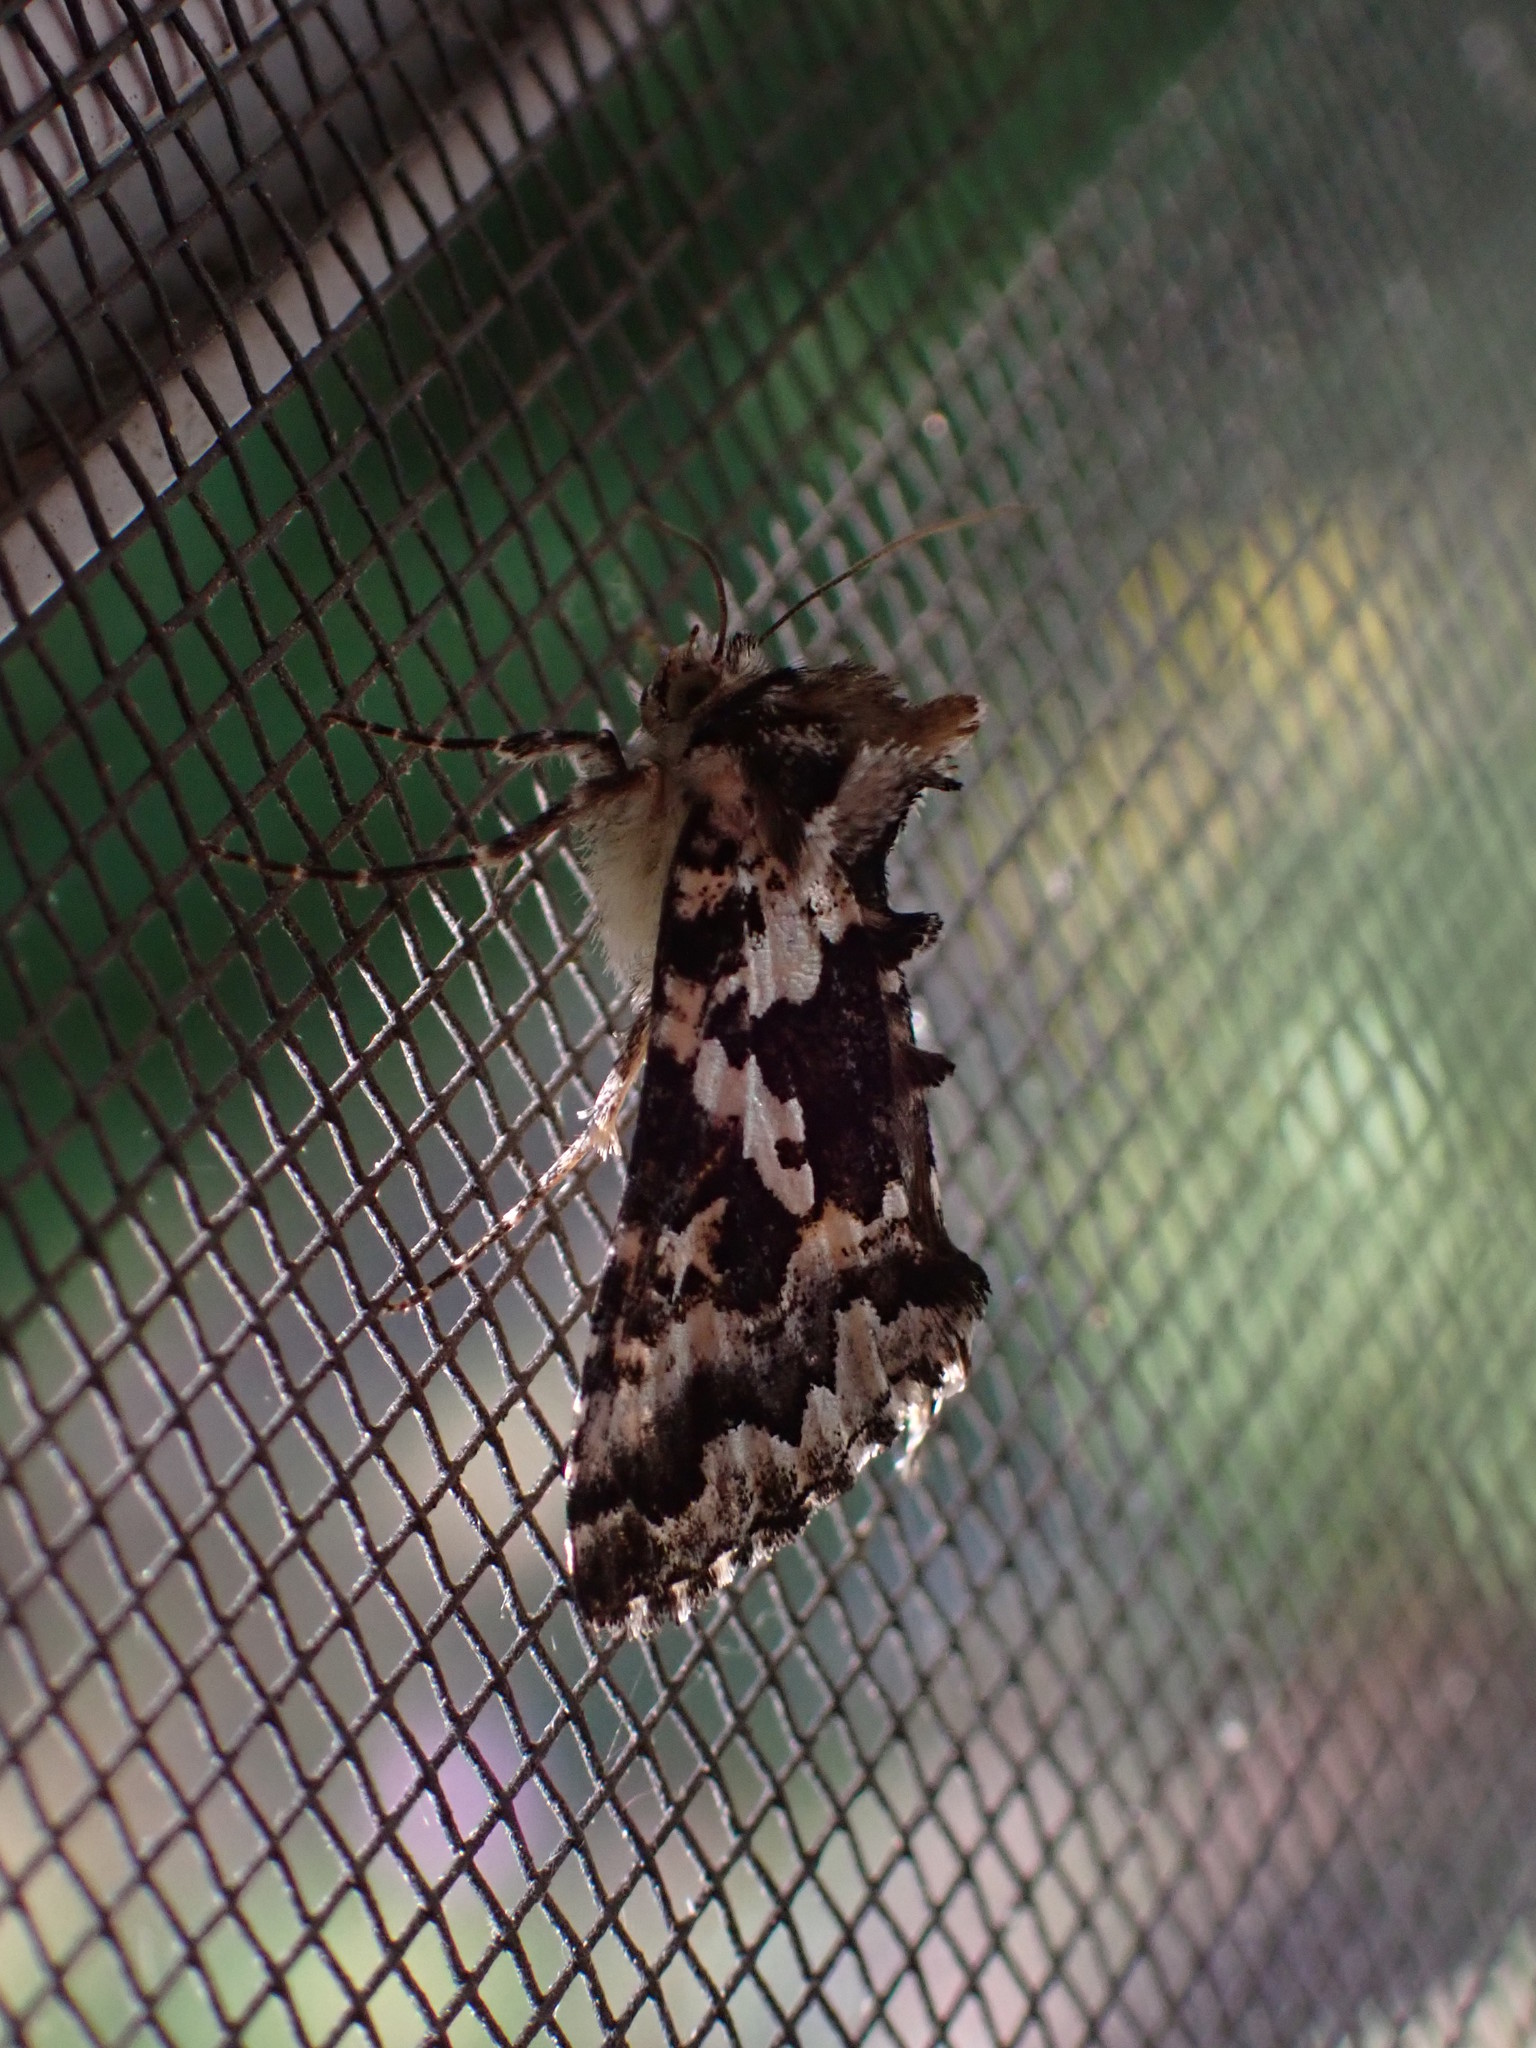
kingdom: Animalia
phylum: Arthropoda
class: Insecta
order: Lepidoptera
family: Noctuidae
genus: Syngrapha
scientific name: Syngrapha rectangula
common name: Angulated cutworm
